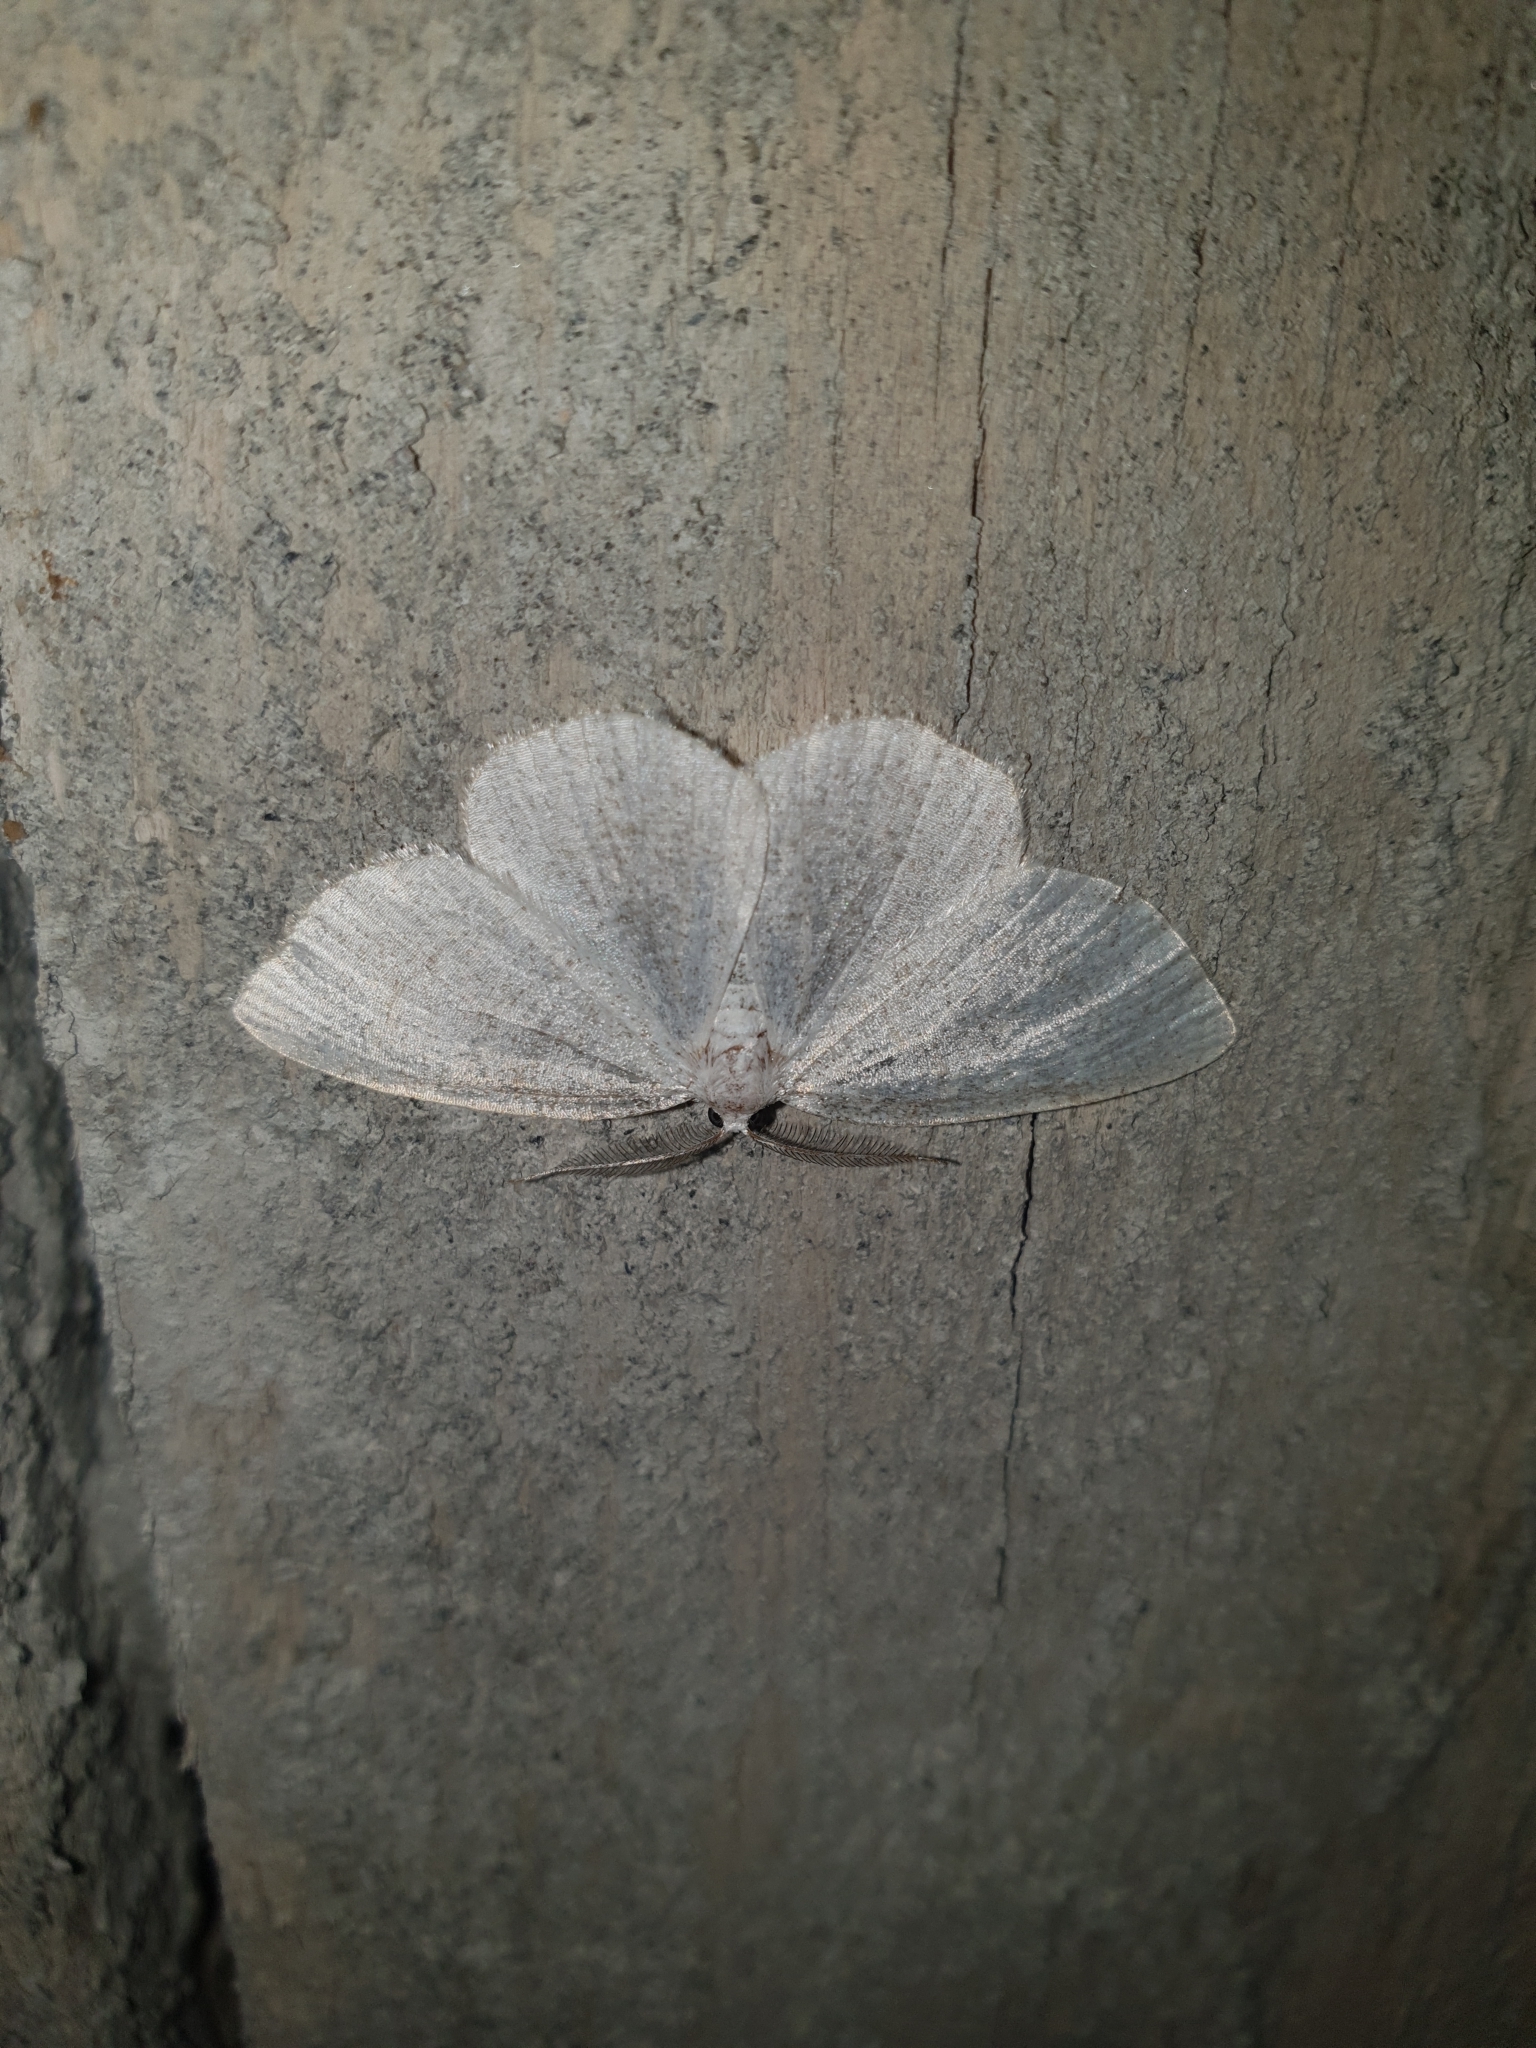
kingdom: Animalia
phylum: Arthropoda
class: Insecta
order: Lepidoptera
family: Geometridae
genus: Cabera
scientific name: Cabera exanthemata
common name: Common wave
